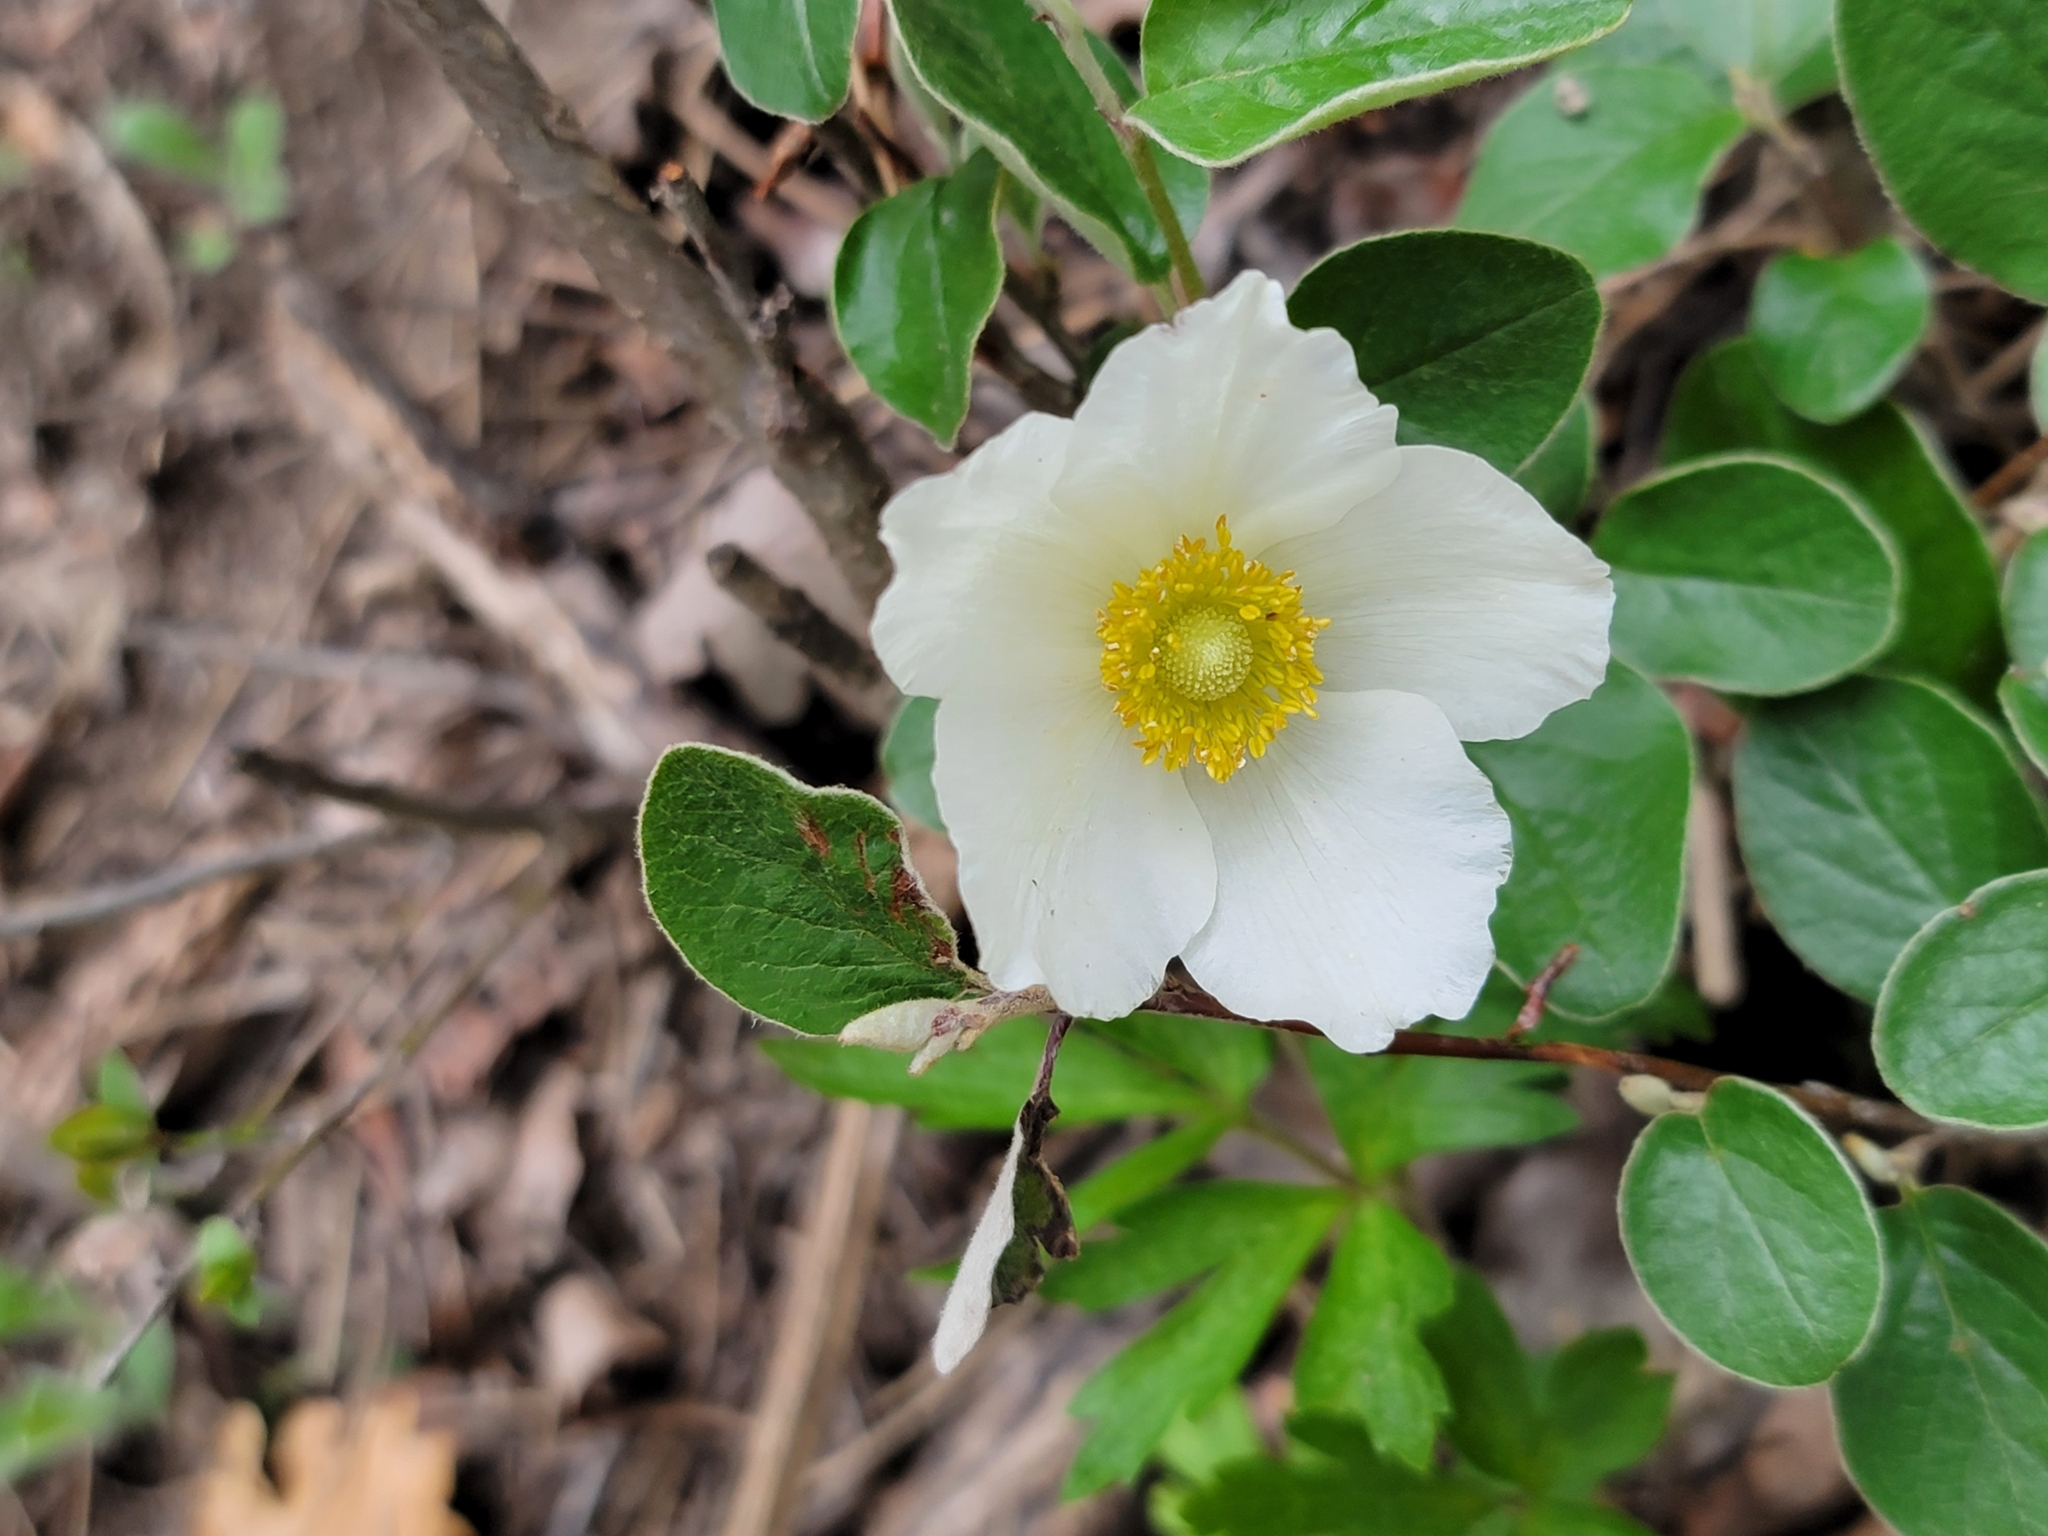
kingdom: Plantae
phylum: Tracheophyta
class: Magnoliopsida
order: Ranunculales
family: Ranunculaceae
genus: Anemone
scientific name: Anemone sylvestris
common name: Snowdrop anemone
